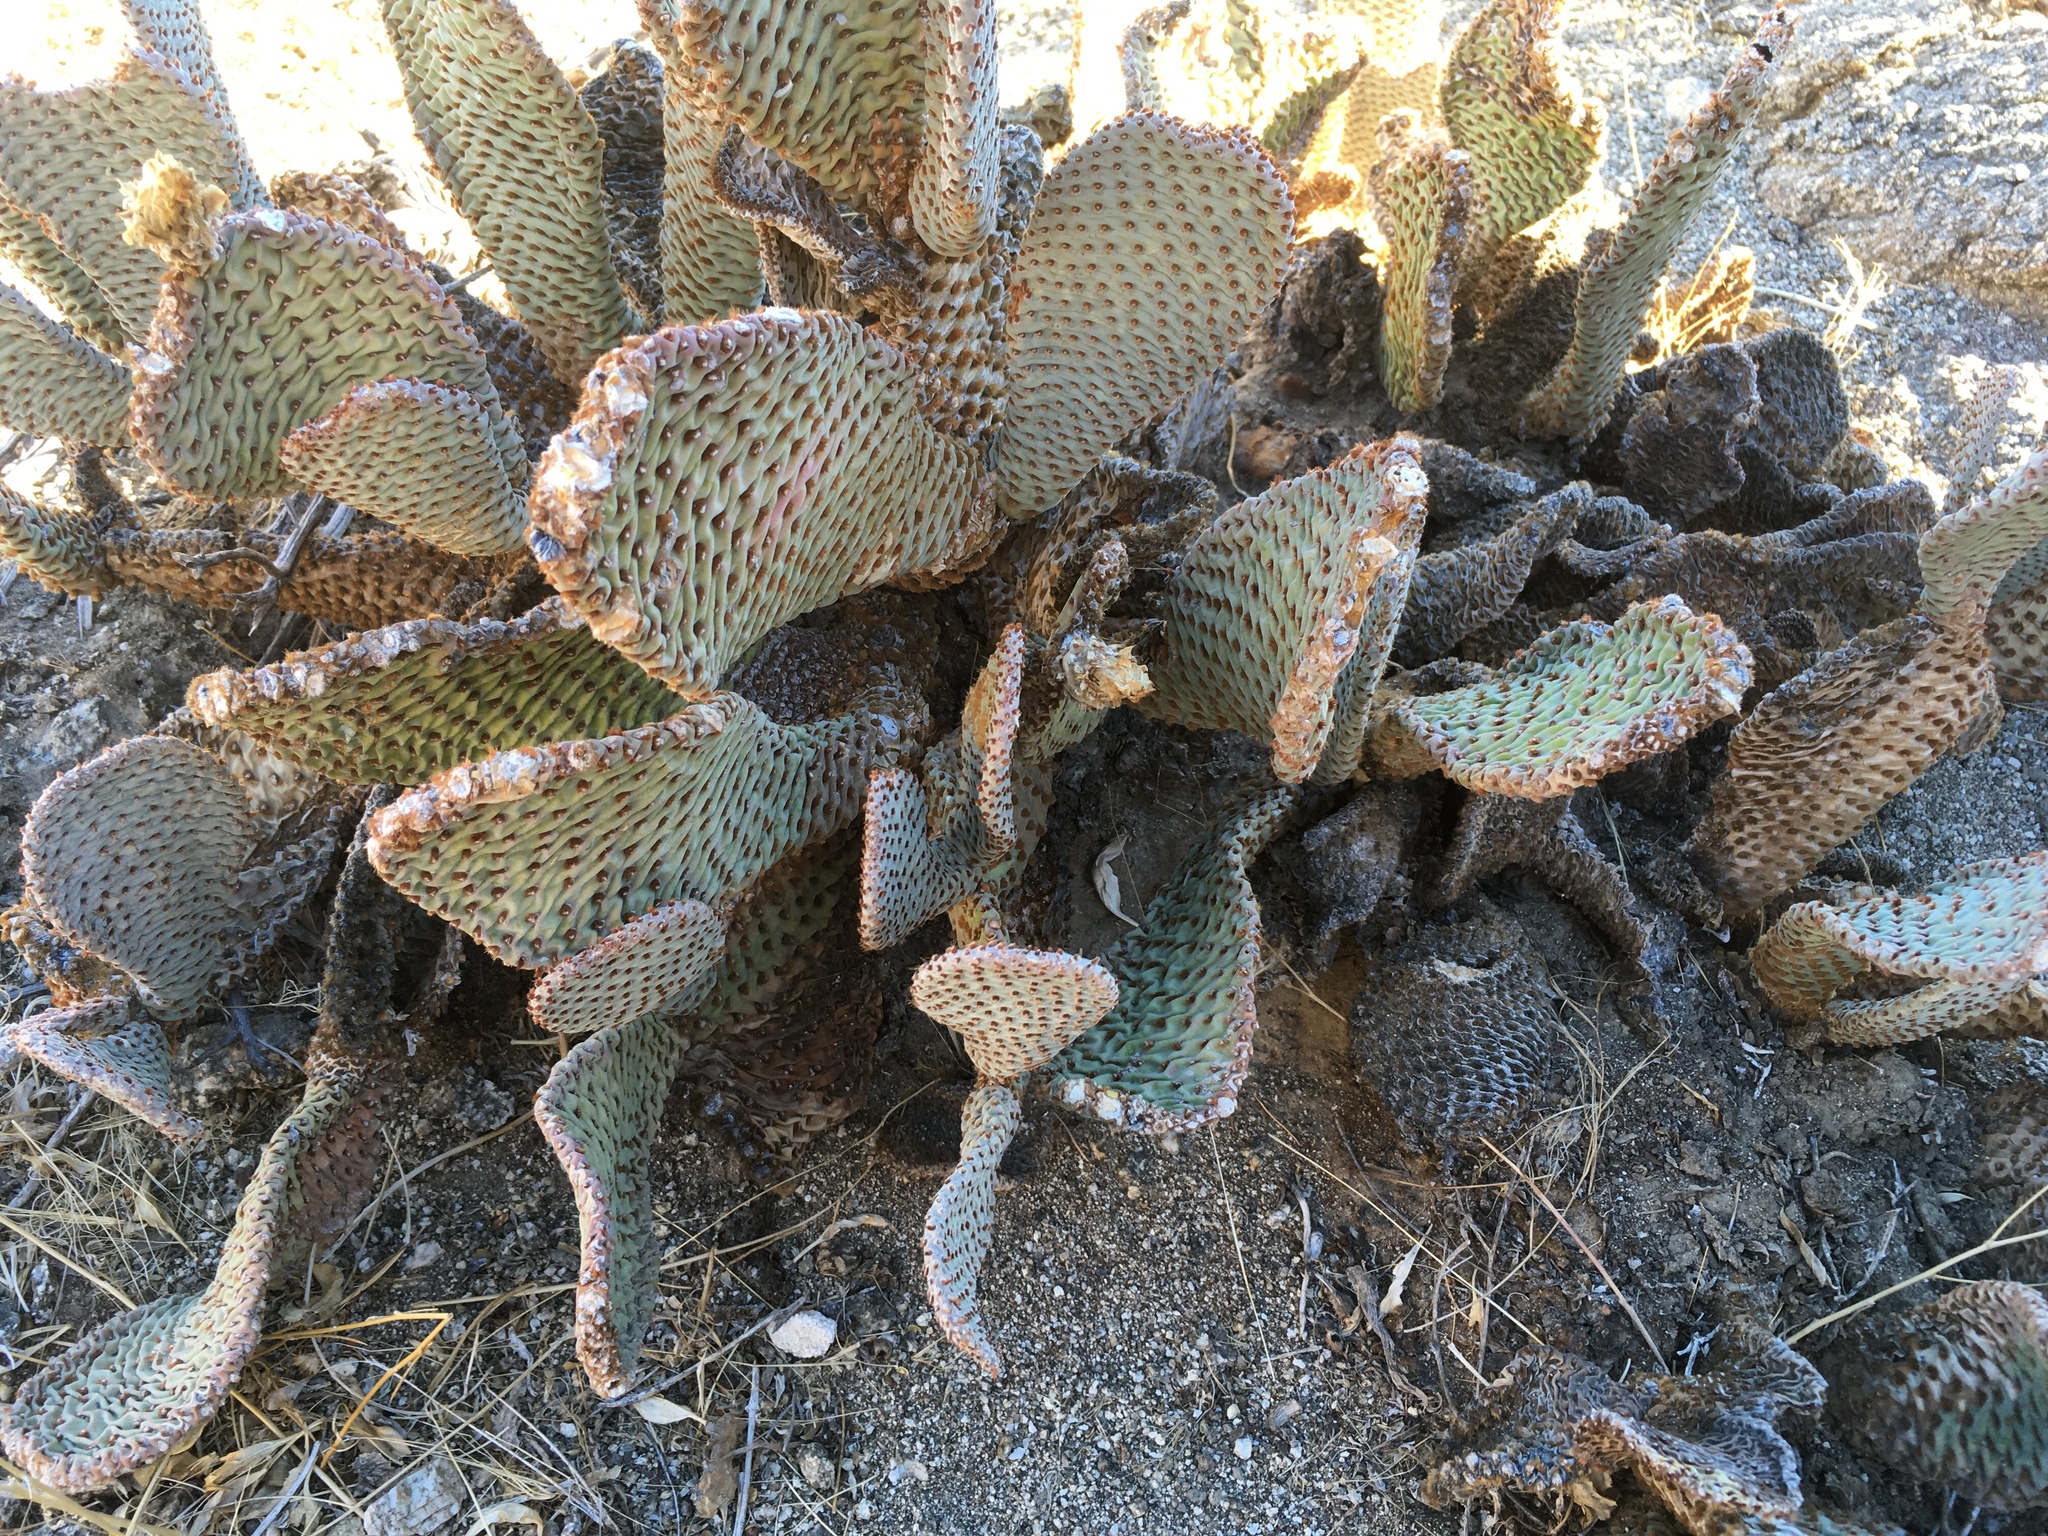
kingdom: Plantae
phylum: Tracheophyta
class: Magnoliopsida
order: Caryophyllales
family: Cactaceae
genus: Opuntia
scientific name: Opuntia basilaris
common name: Beavertail prickly-pear
